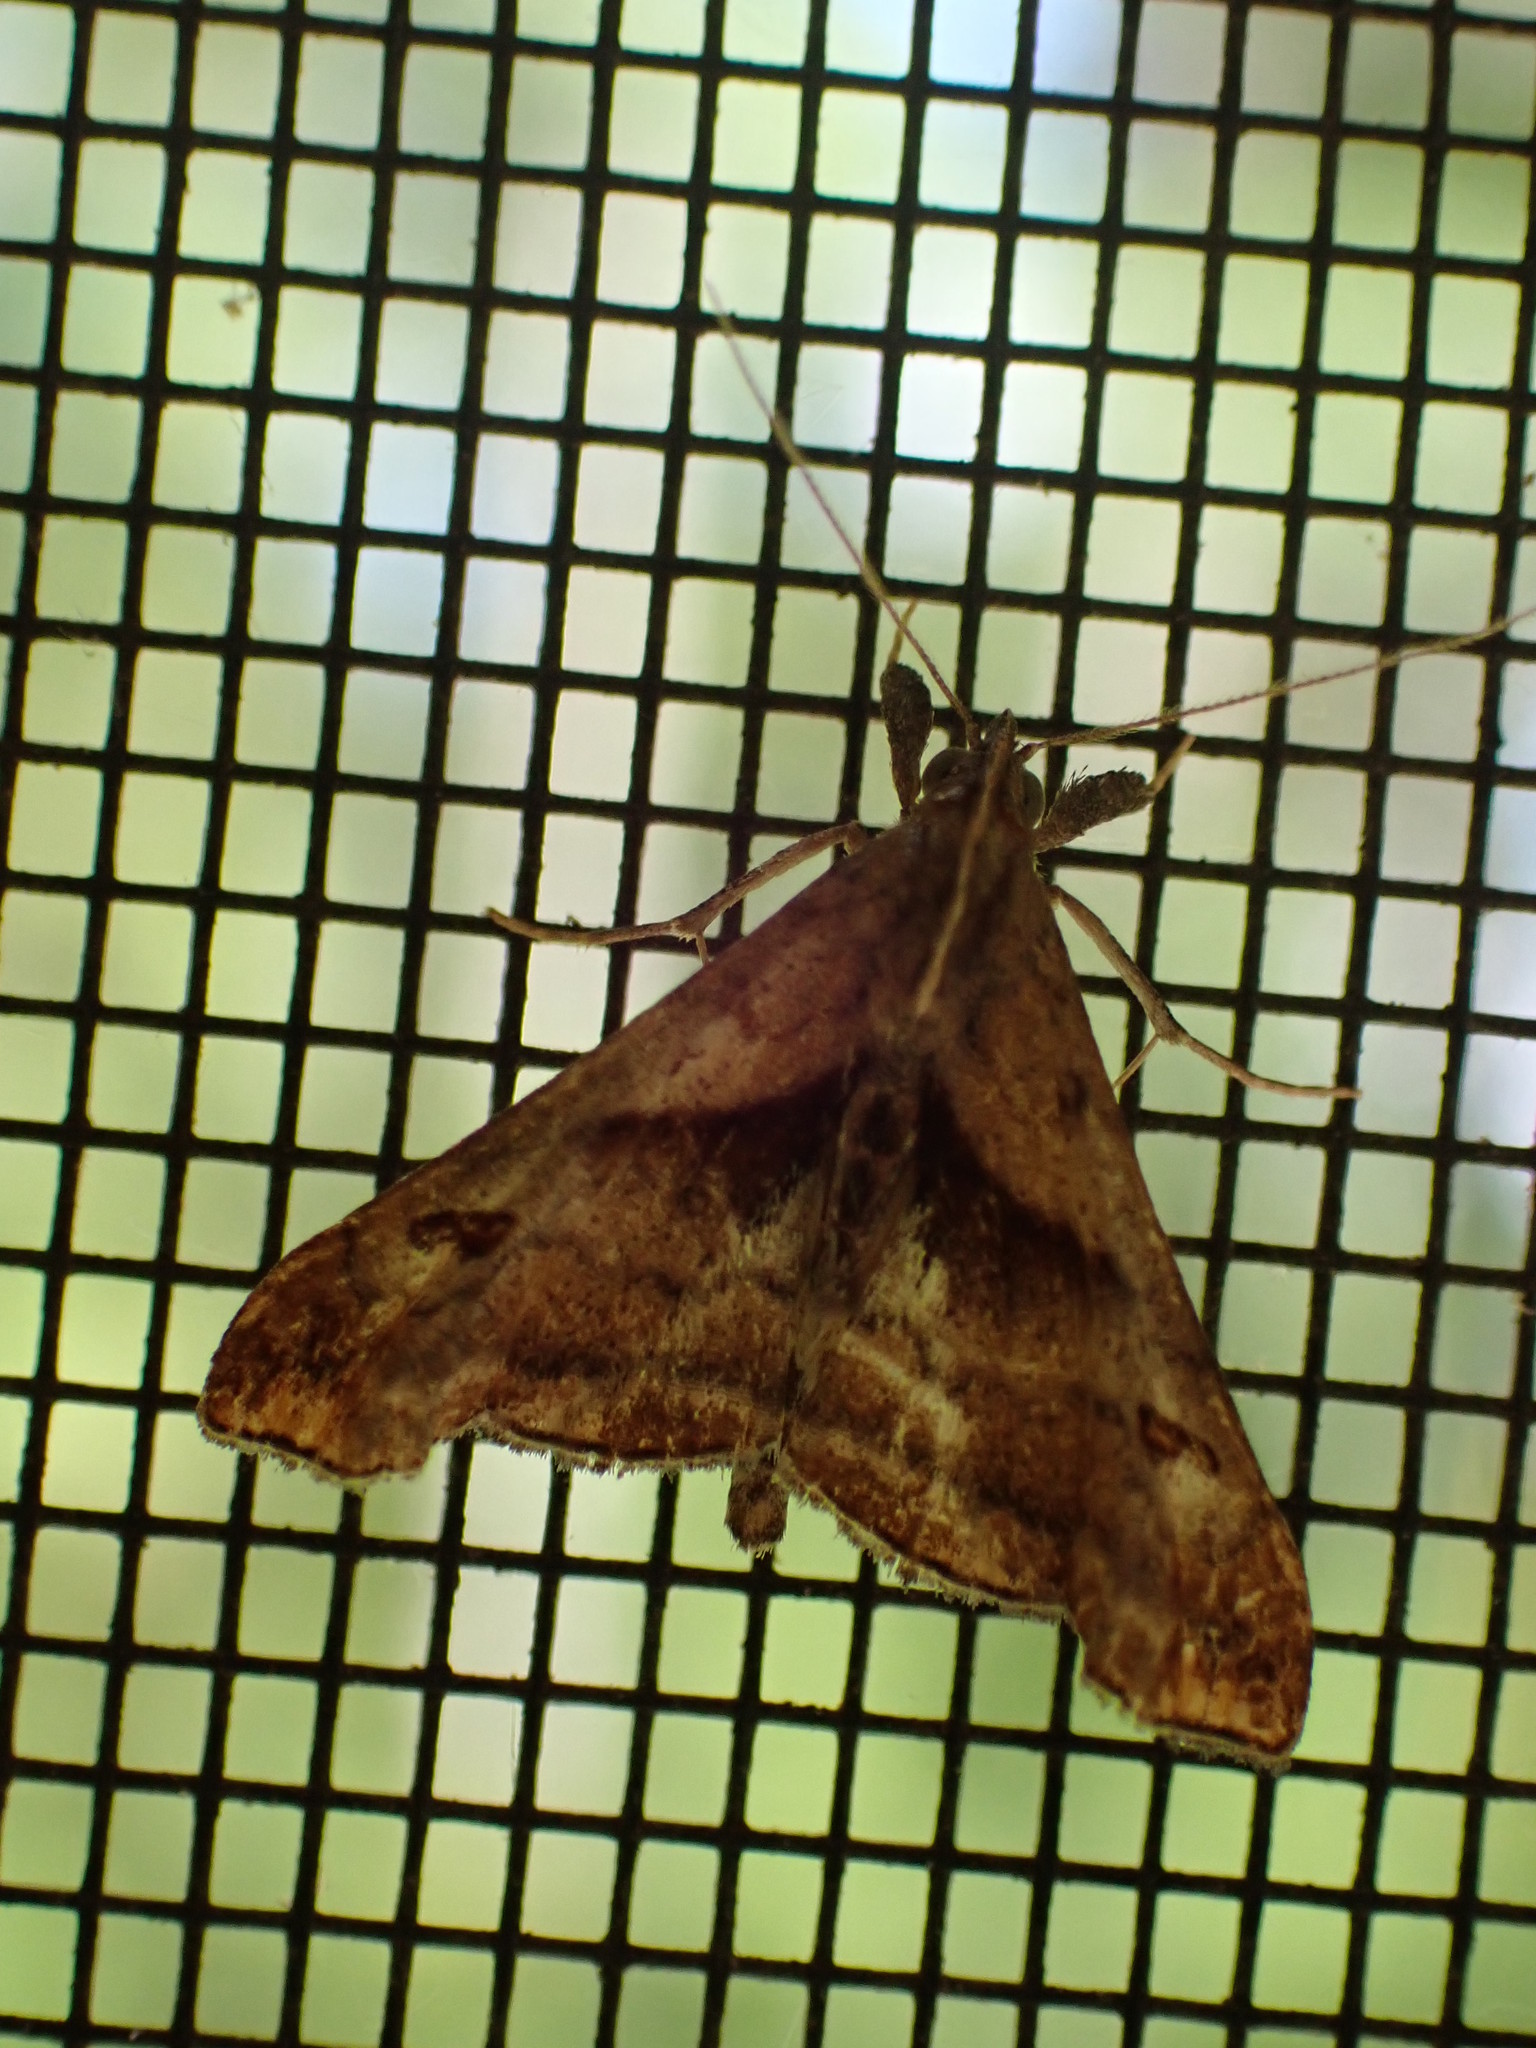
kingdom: Animalia
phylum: Arthropoda
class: Insecta
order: Lepidoptera
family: Erebidae
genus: Palthis
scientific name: Palthis angulalis
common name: Dark-spotted palthis moth
